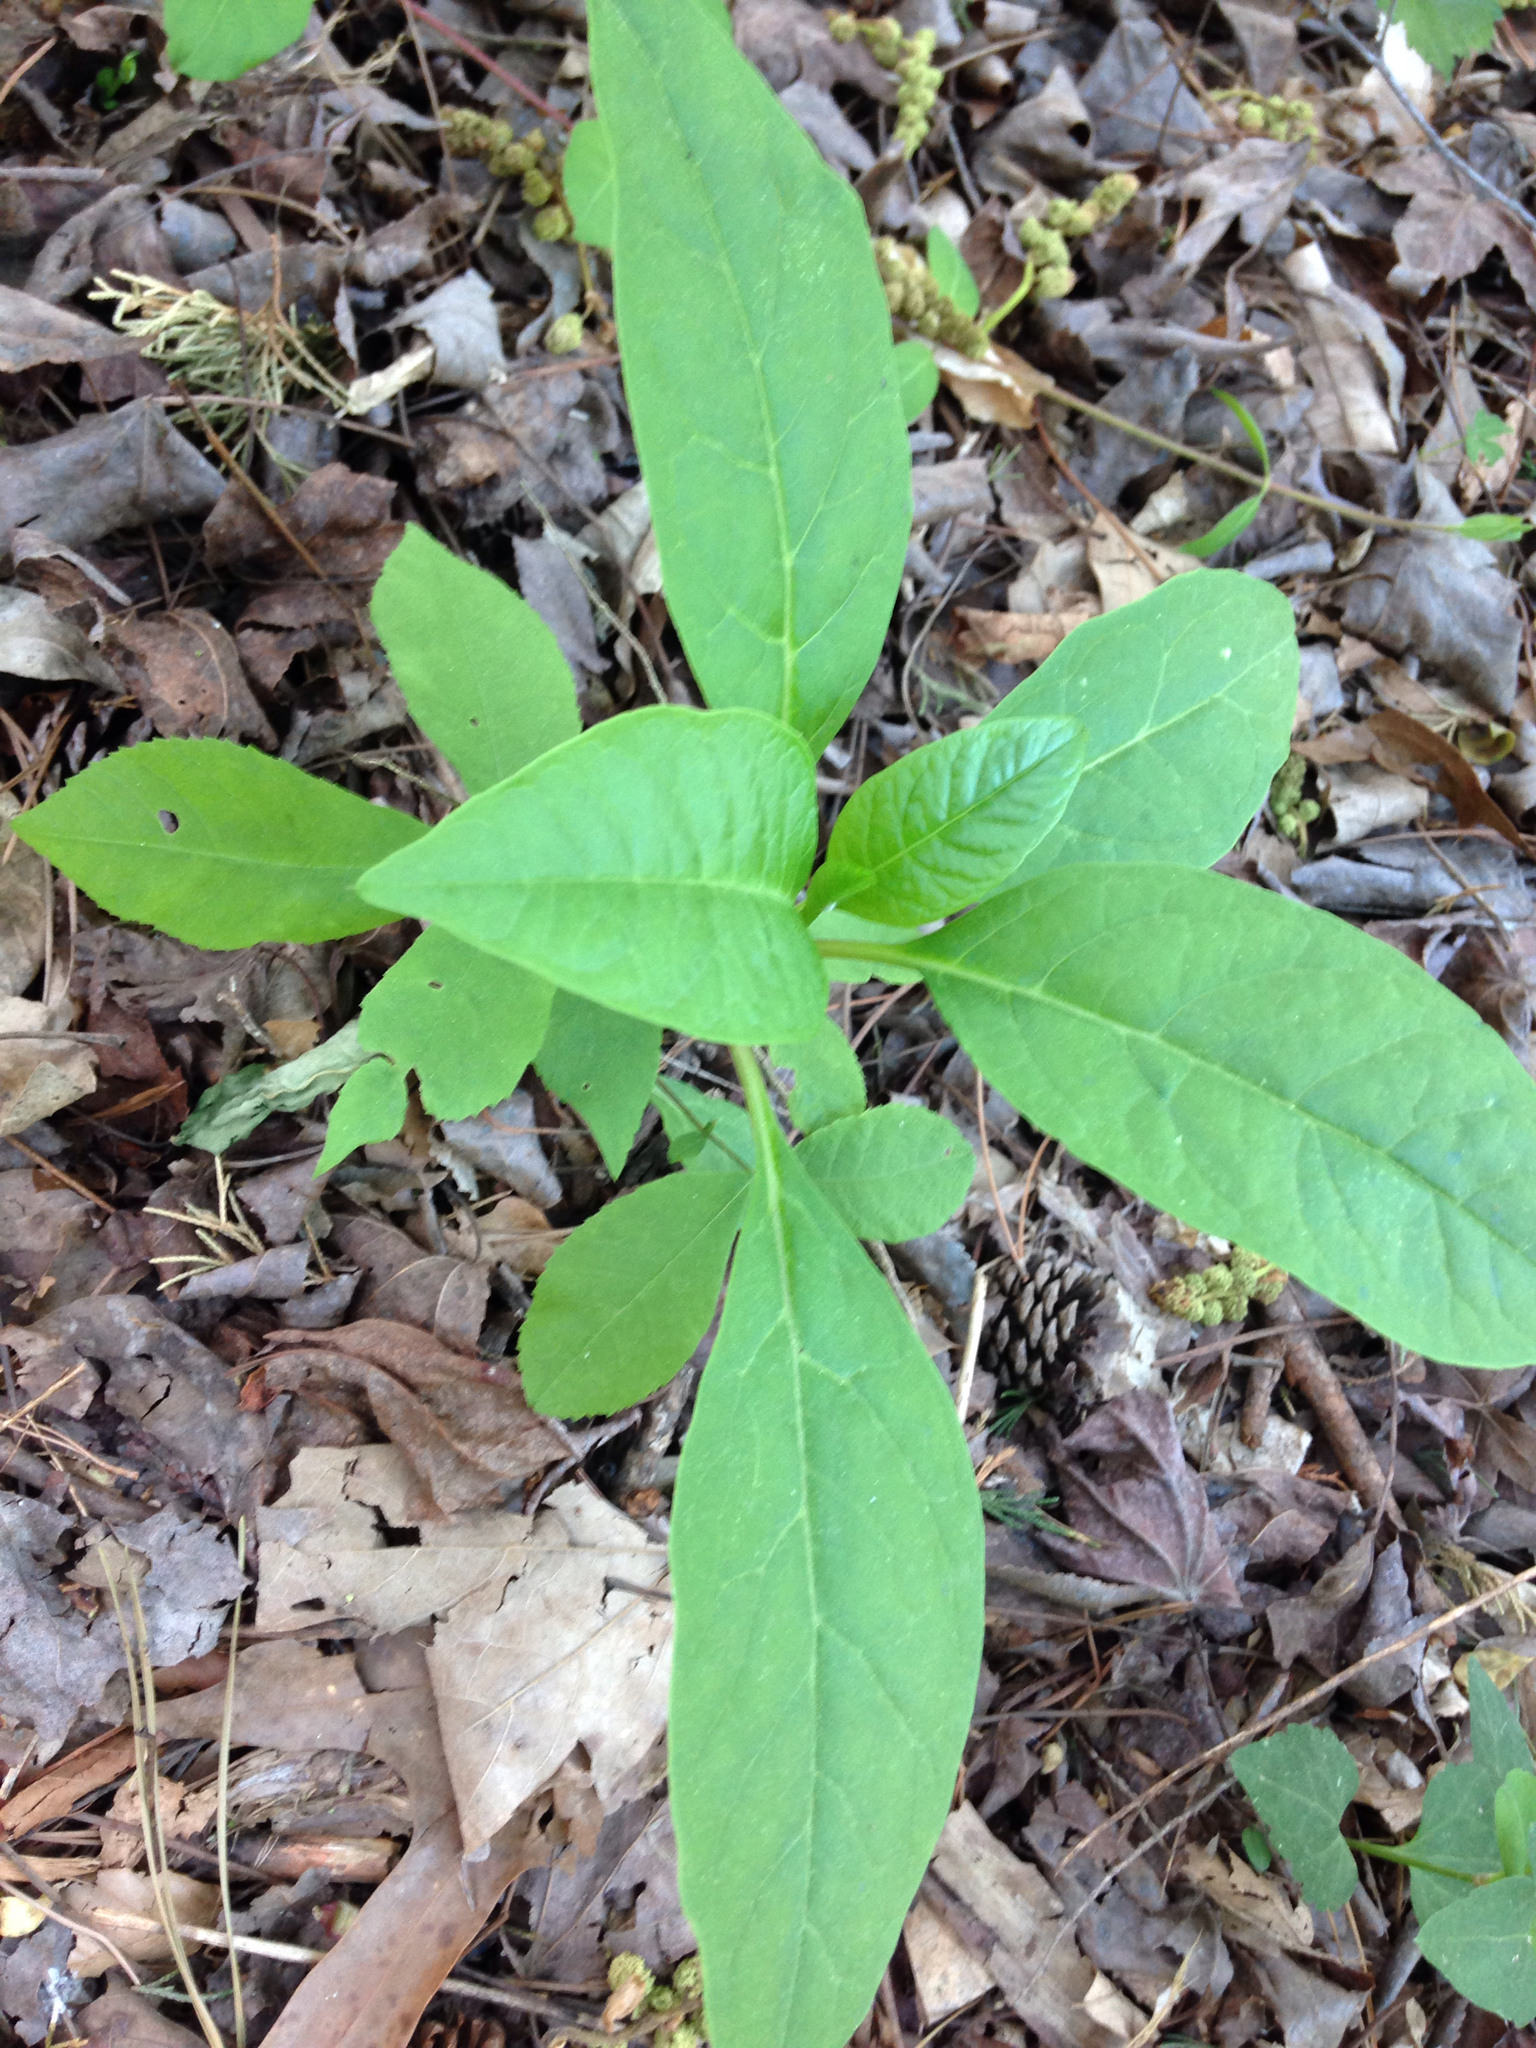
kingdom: Plantae
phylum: Tracheophyta
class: Magnoliopsida
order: Caryophyllales
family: Phytolaccaceae
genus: Phytolacca
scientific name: Phytolacca americana
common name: American pokeweed
